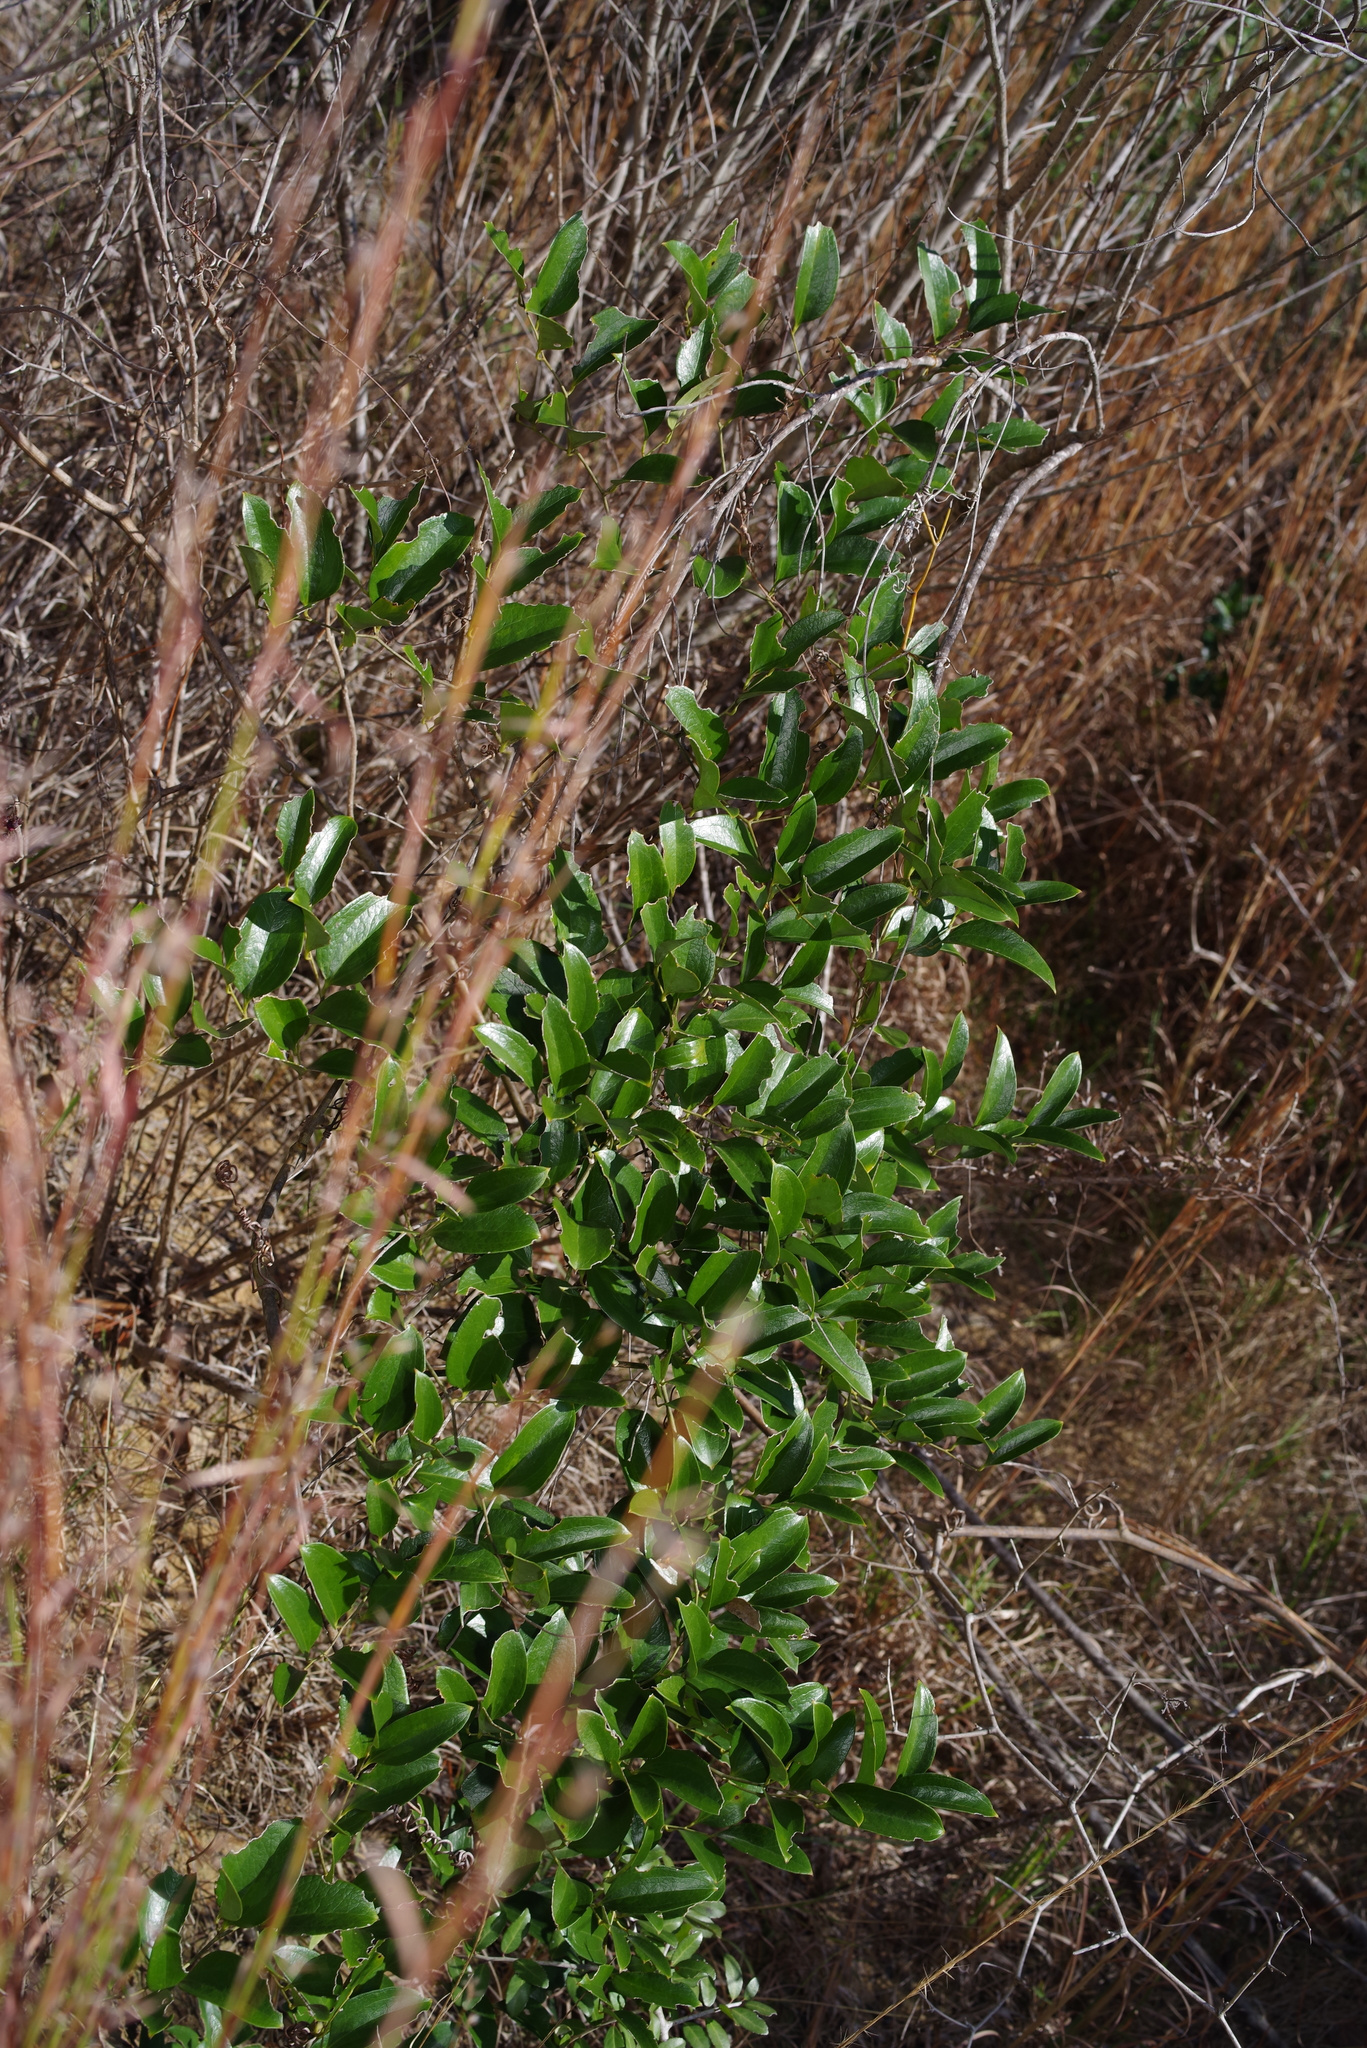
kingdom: Plantae
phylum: Tracheophyta
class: Liliopsida
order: Liliales
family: Smilacaceae
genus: Smilax
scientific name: Smilax maritima
